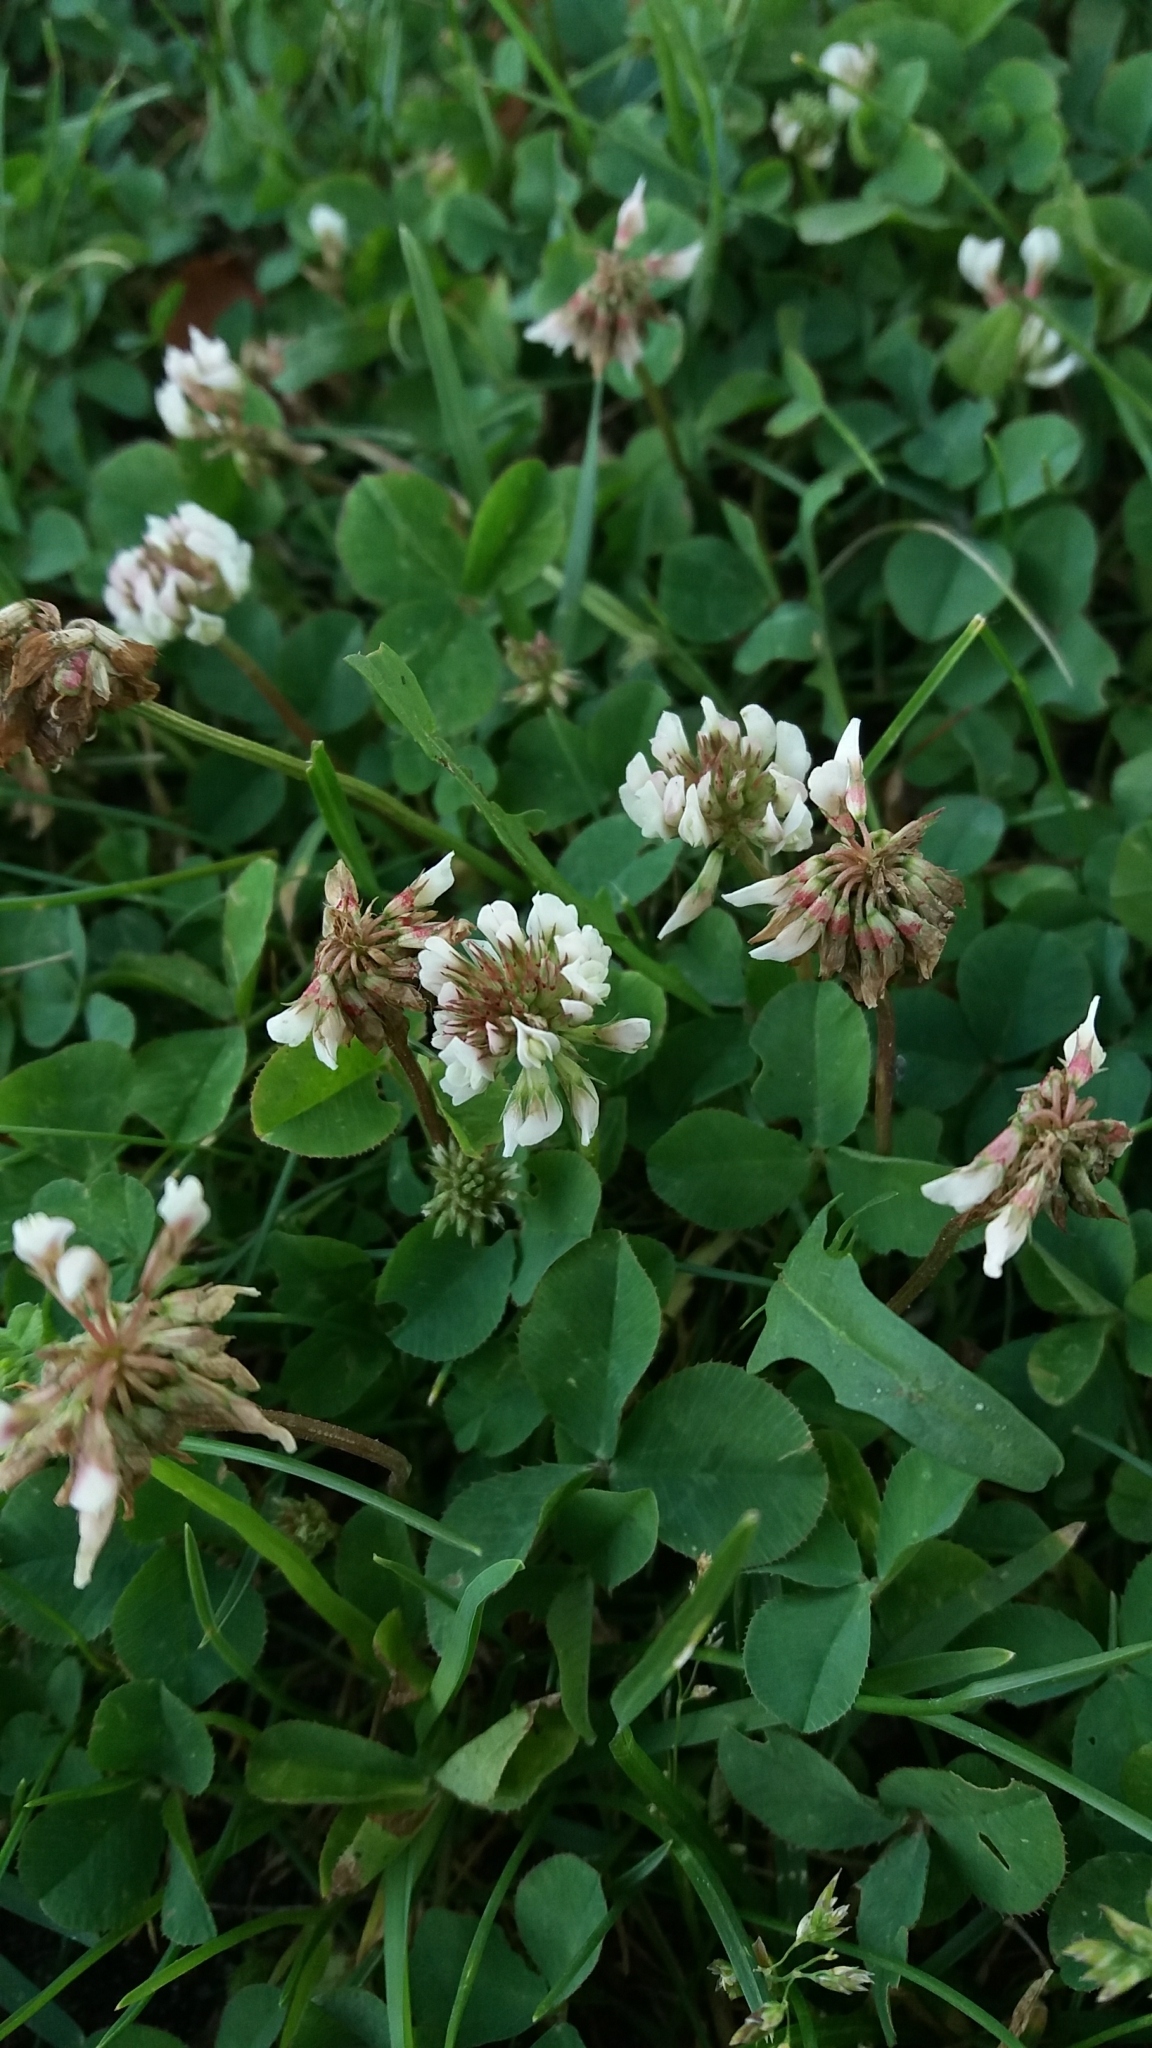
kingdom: Plantae
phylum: Tracheophyta
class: Magnoliopsida
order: Fabales
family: Fabaceae
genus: Trifolium
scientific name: Trifolium repens
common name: White clover
